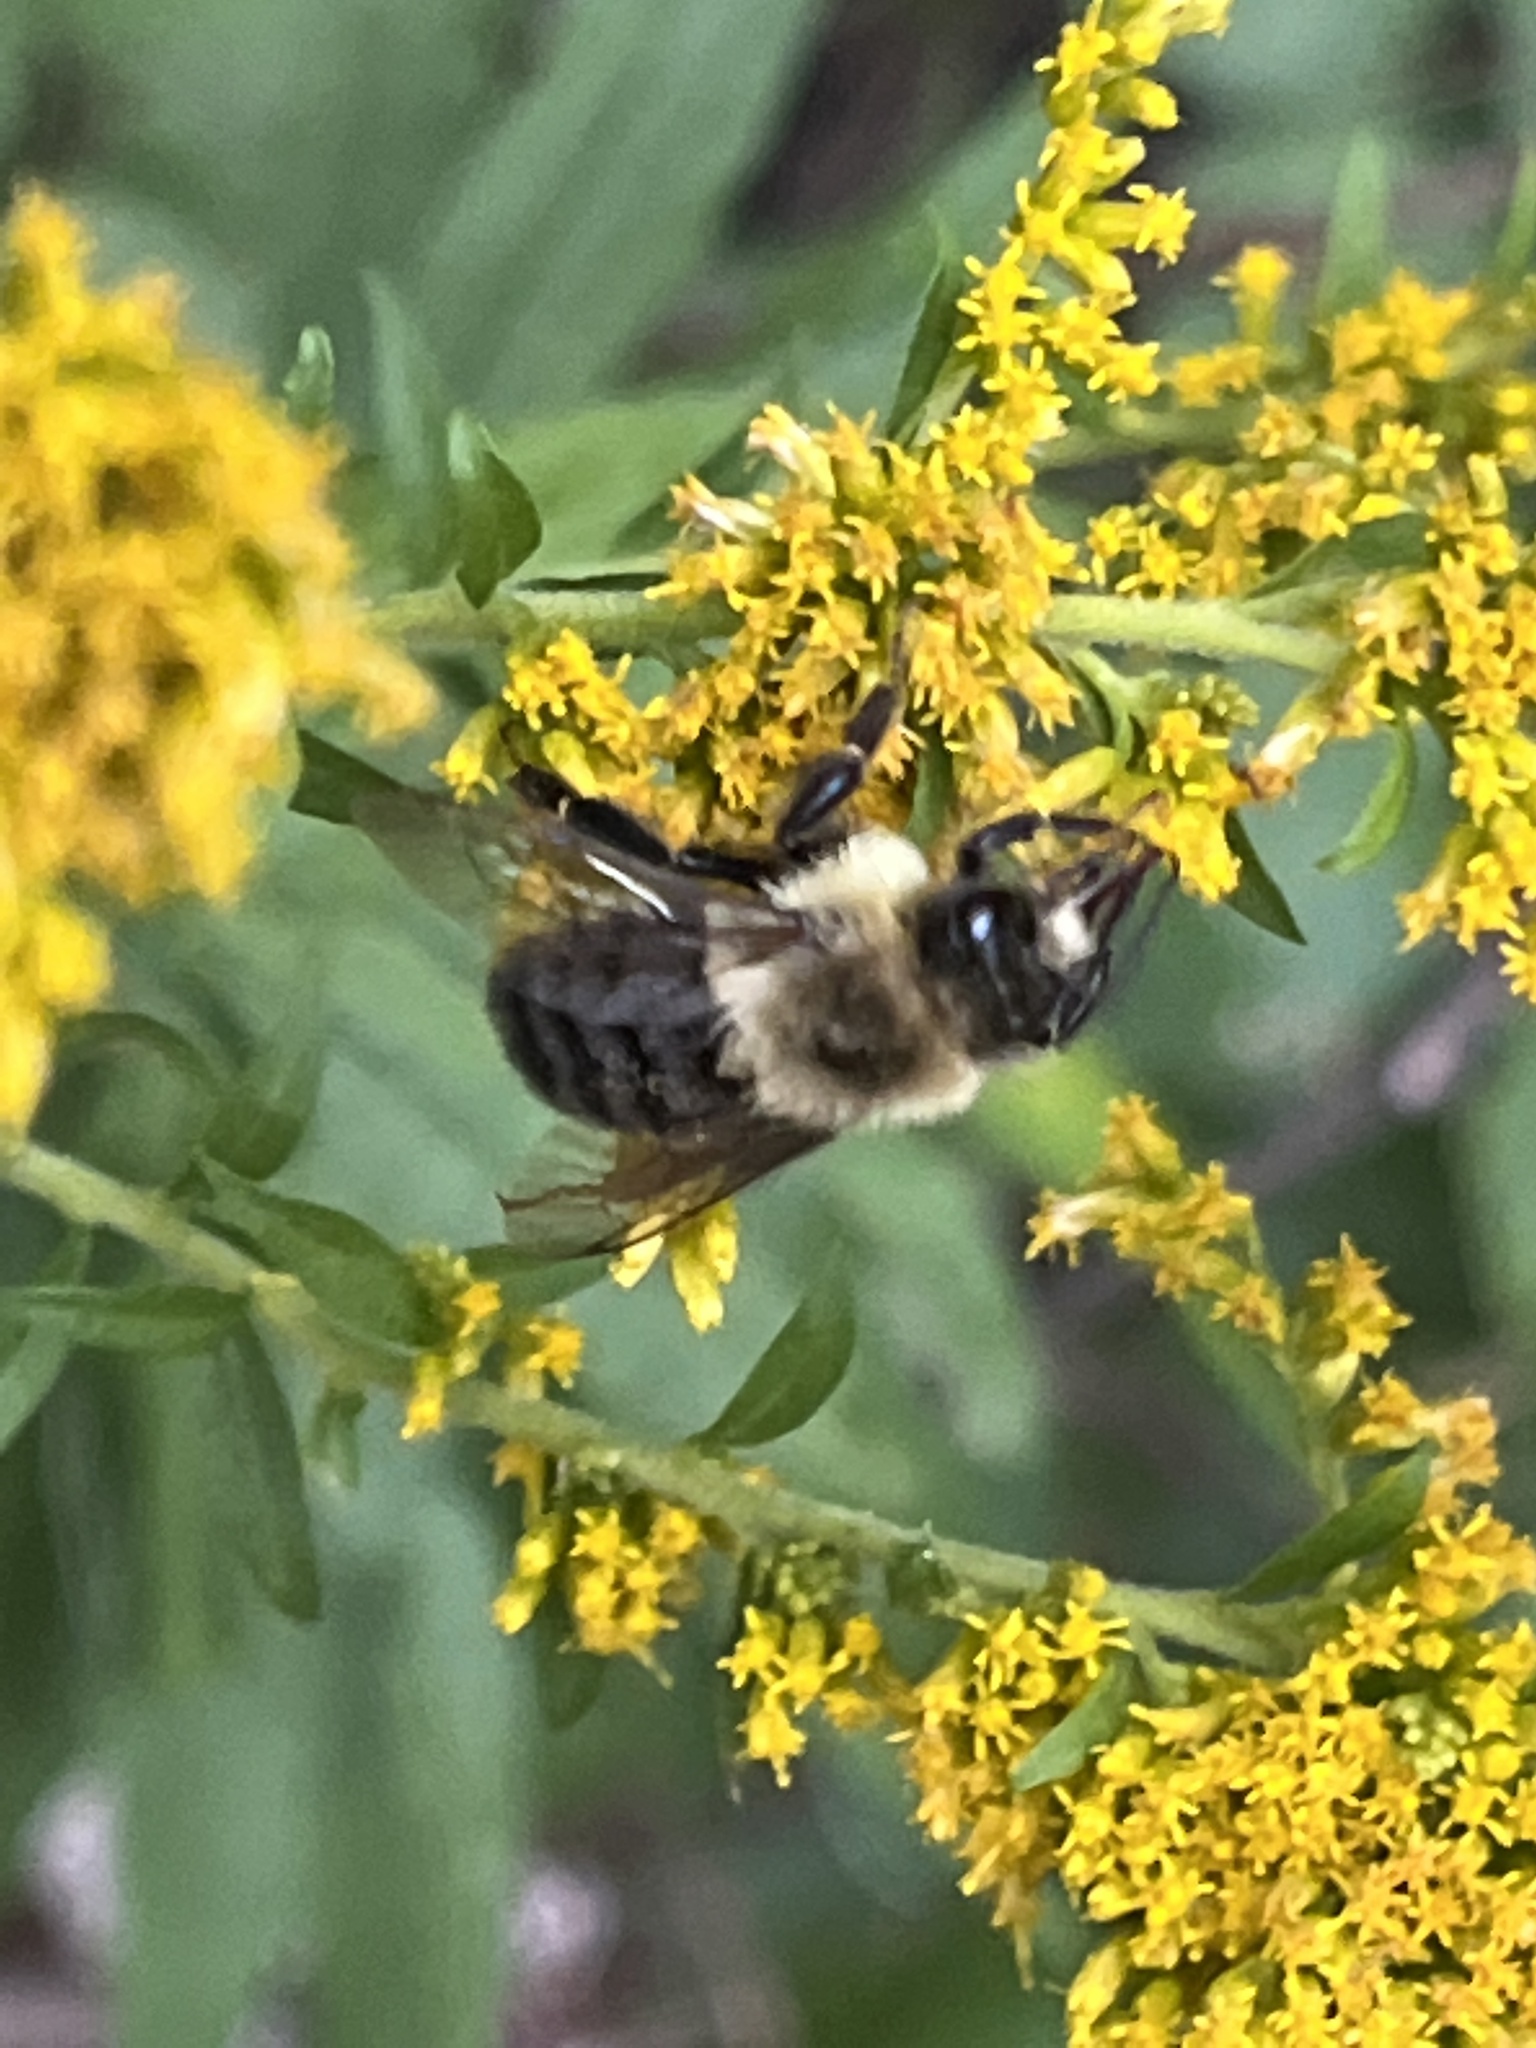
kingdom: Animalia
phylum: Arthropoda
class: Insecta
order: Hymenoptera
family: Apidae
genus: Bombus
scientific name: Bombus impatiens
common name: Common eastern bumble bee
